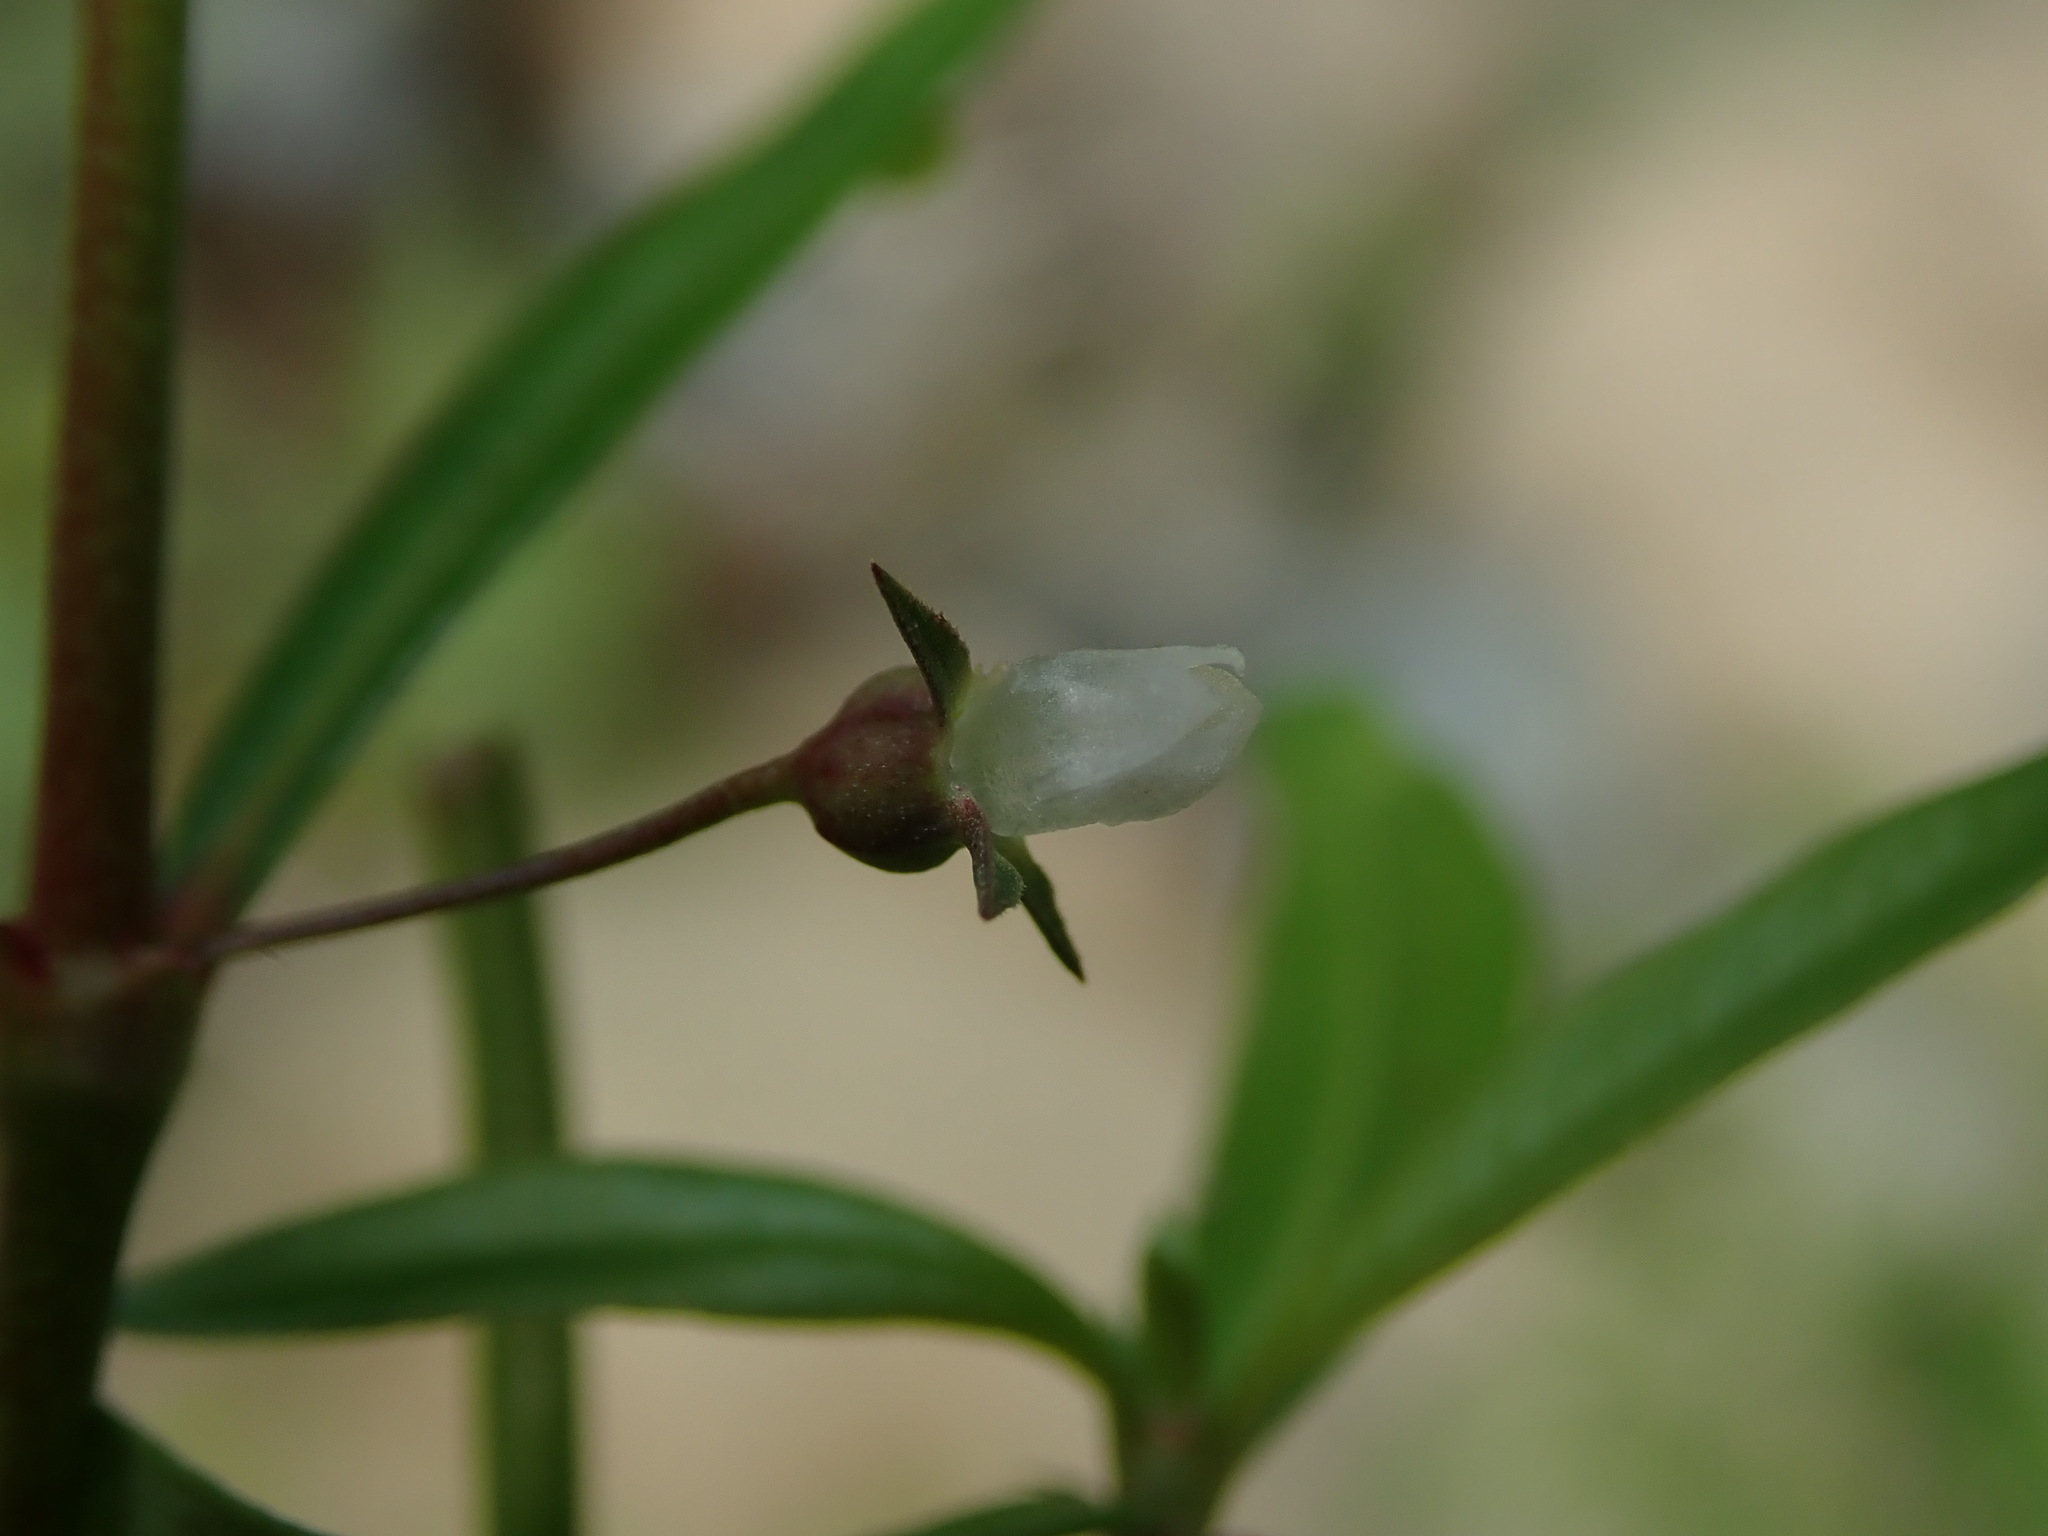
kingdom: Plantae
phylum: Tracheophyta
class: Magnoliopsida
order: Gentianales
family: Rubiaceae
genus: Oldenlandia
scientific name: Oldenlandia lancifolia
